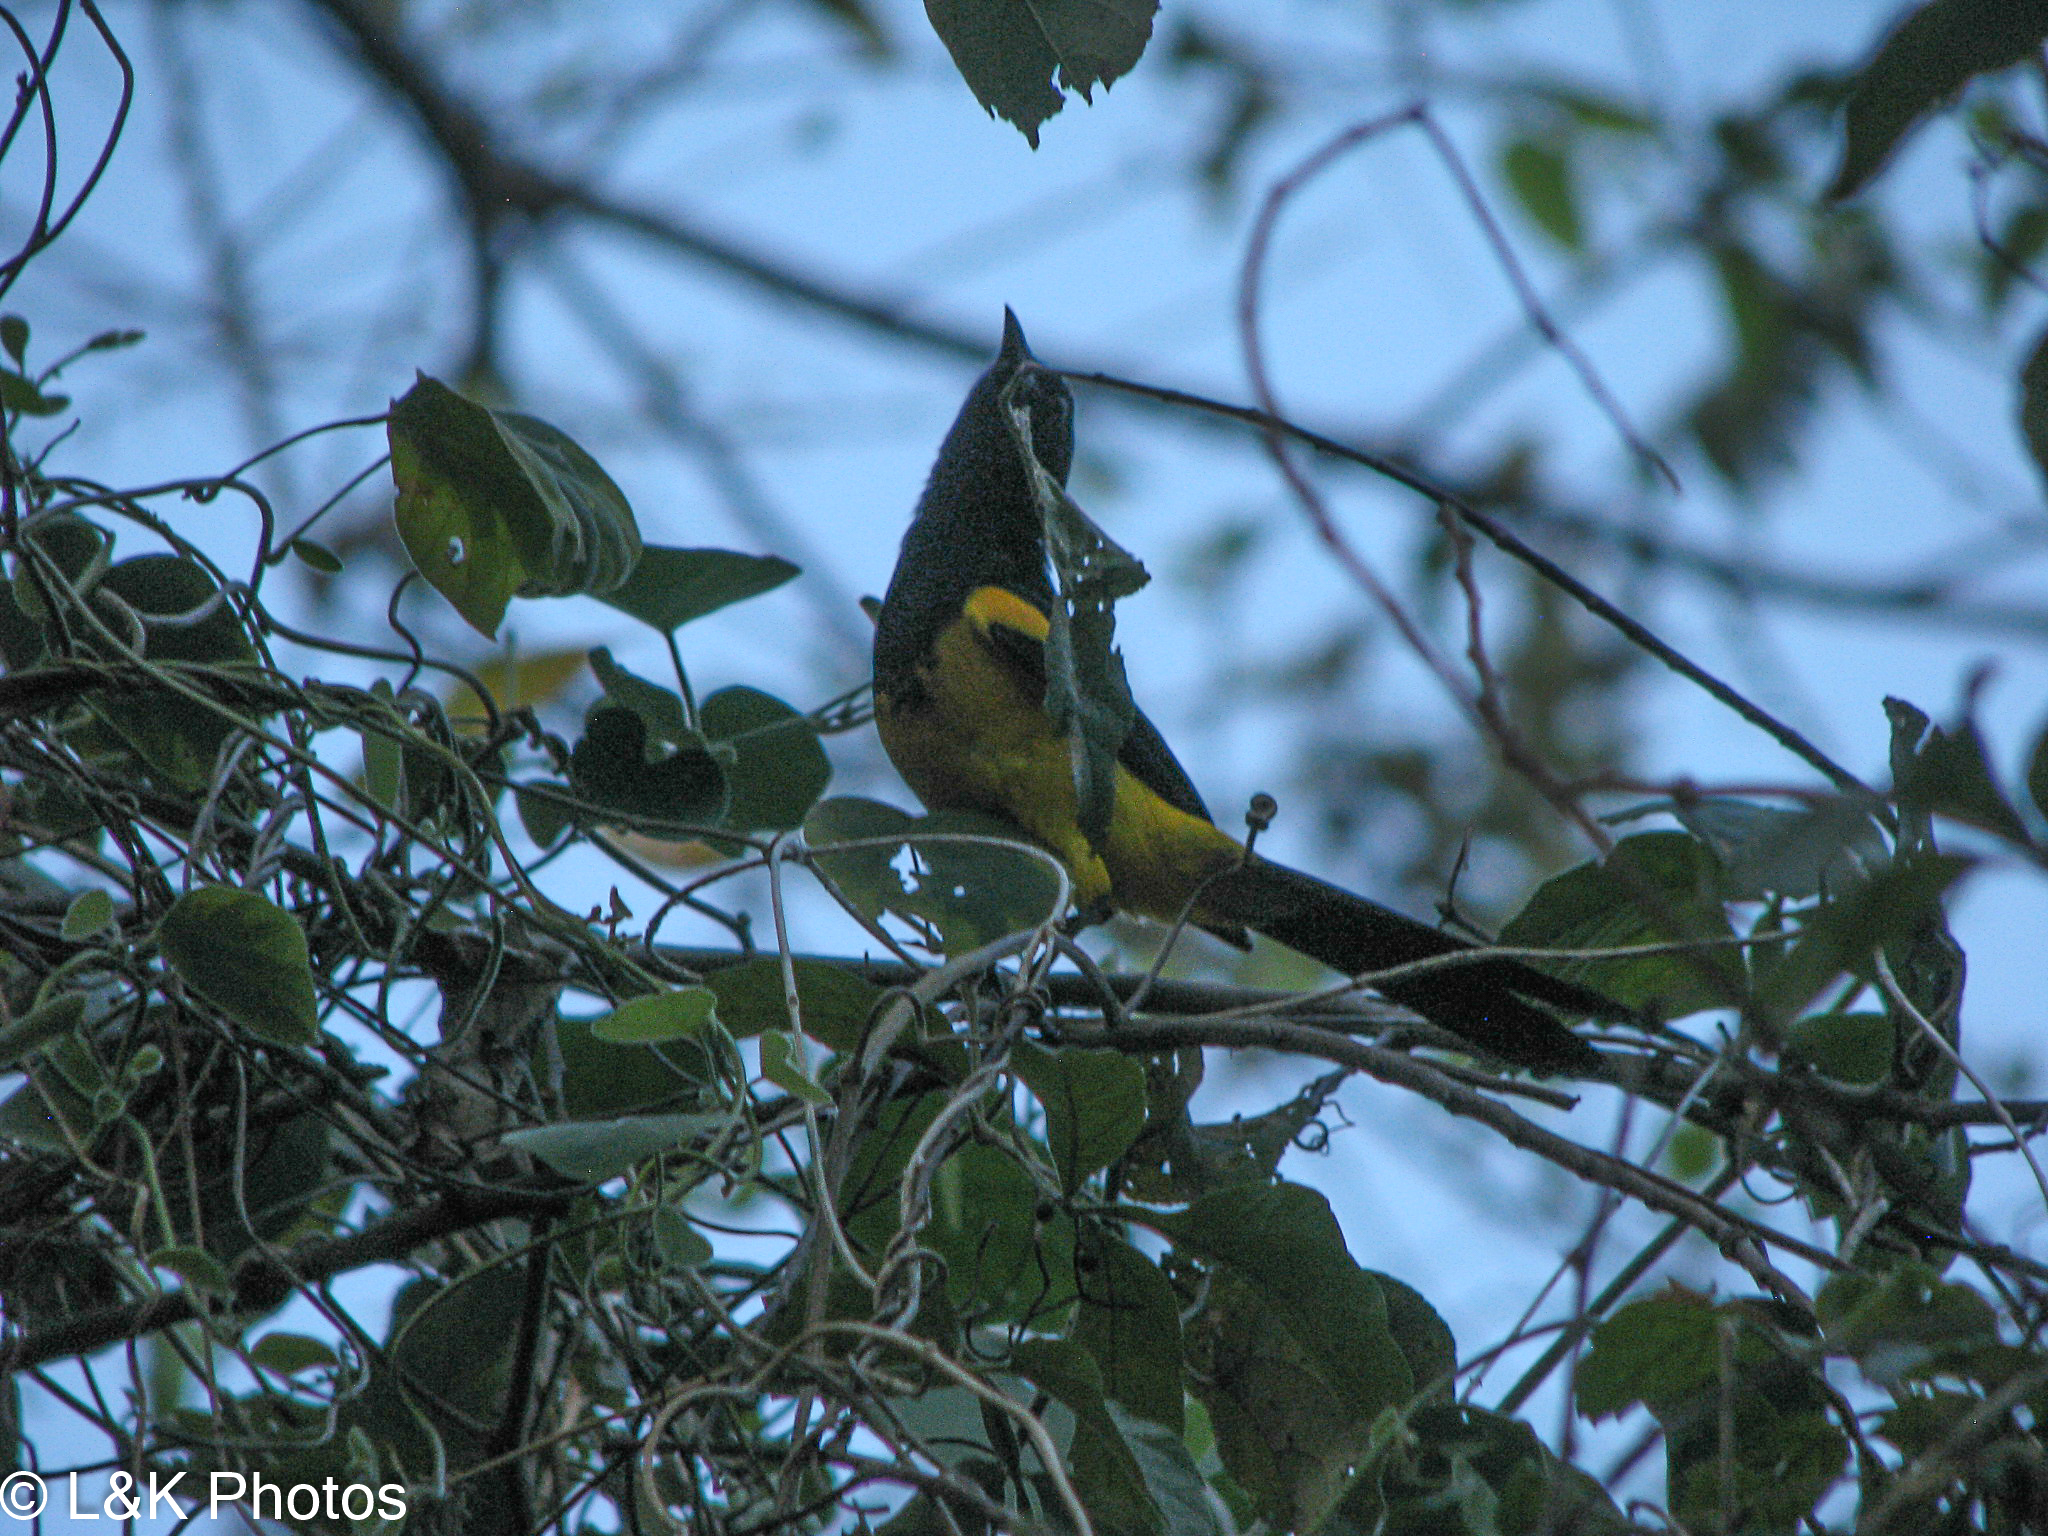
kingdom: Animalia
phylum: Chordata
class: Aves
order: Passeriformes
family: Icteridae
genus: Icterus
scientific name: Icterus prosthemelas
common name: Black-cowled oriole
